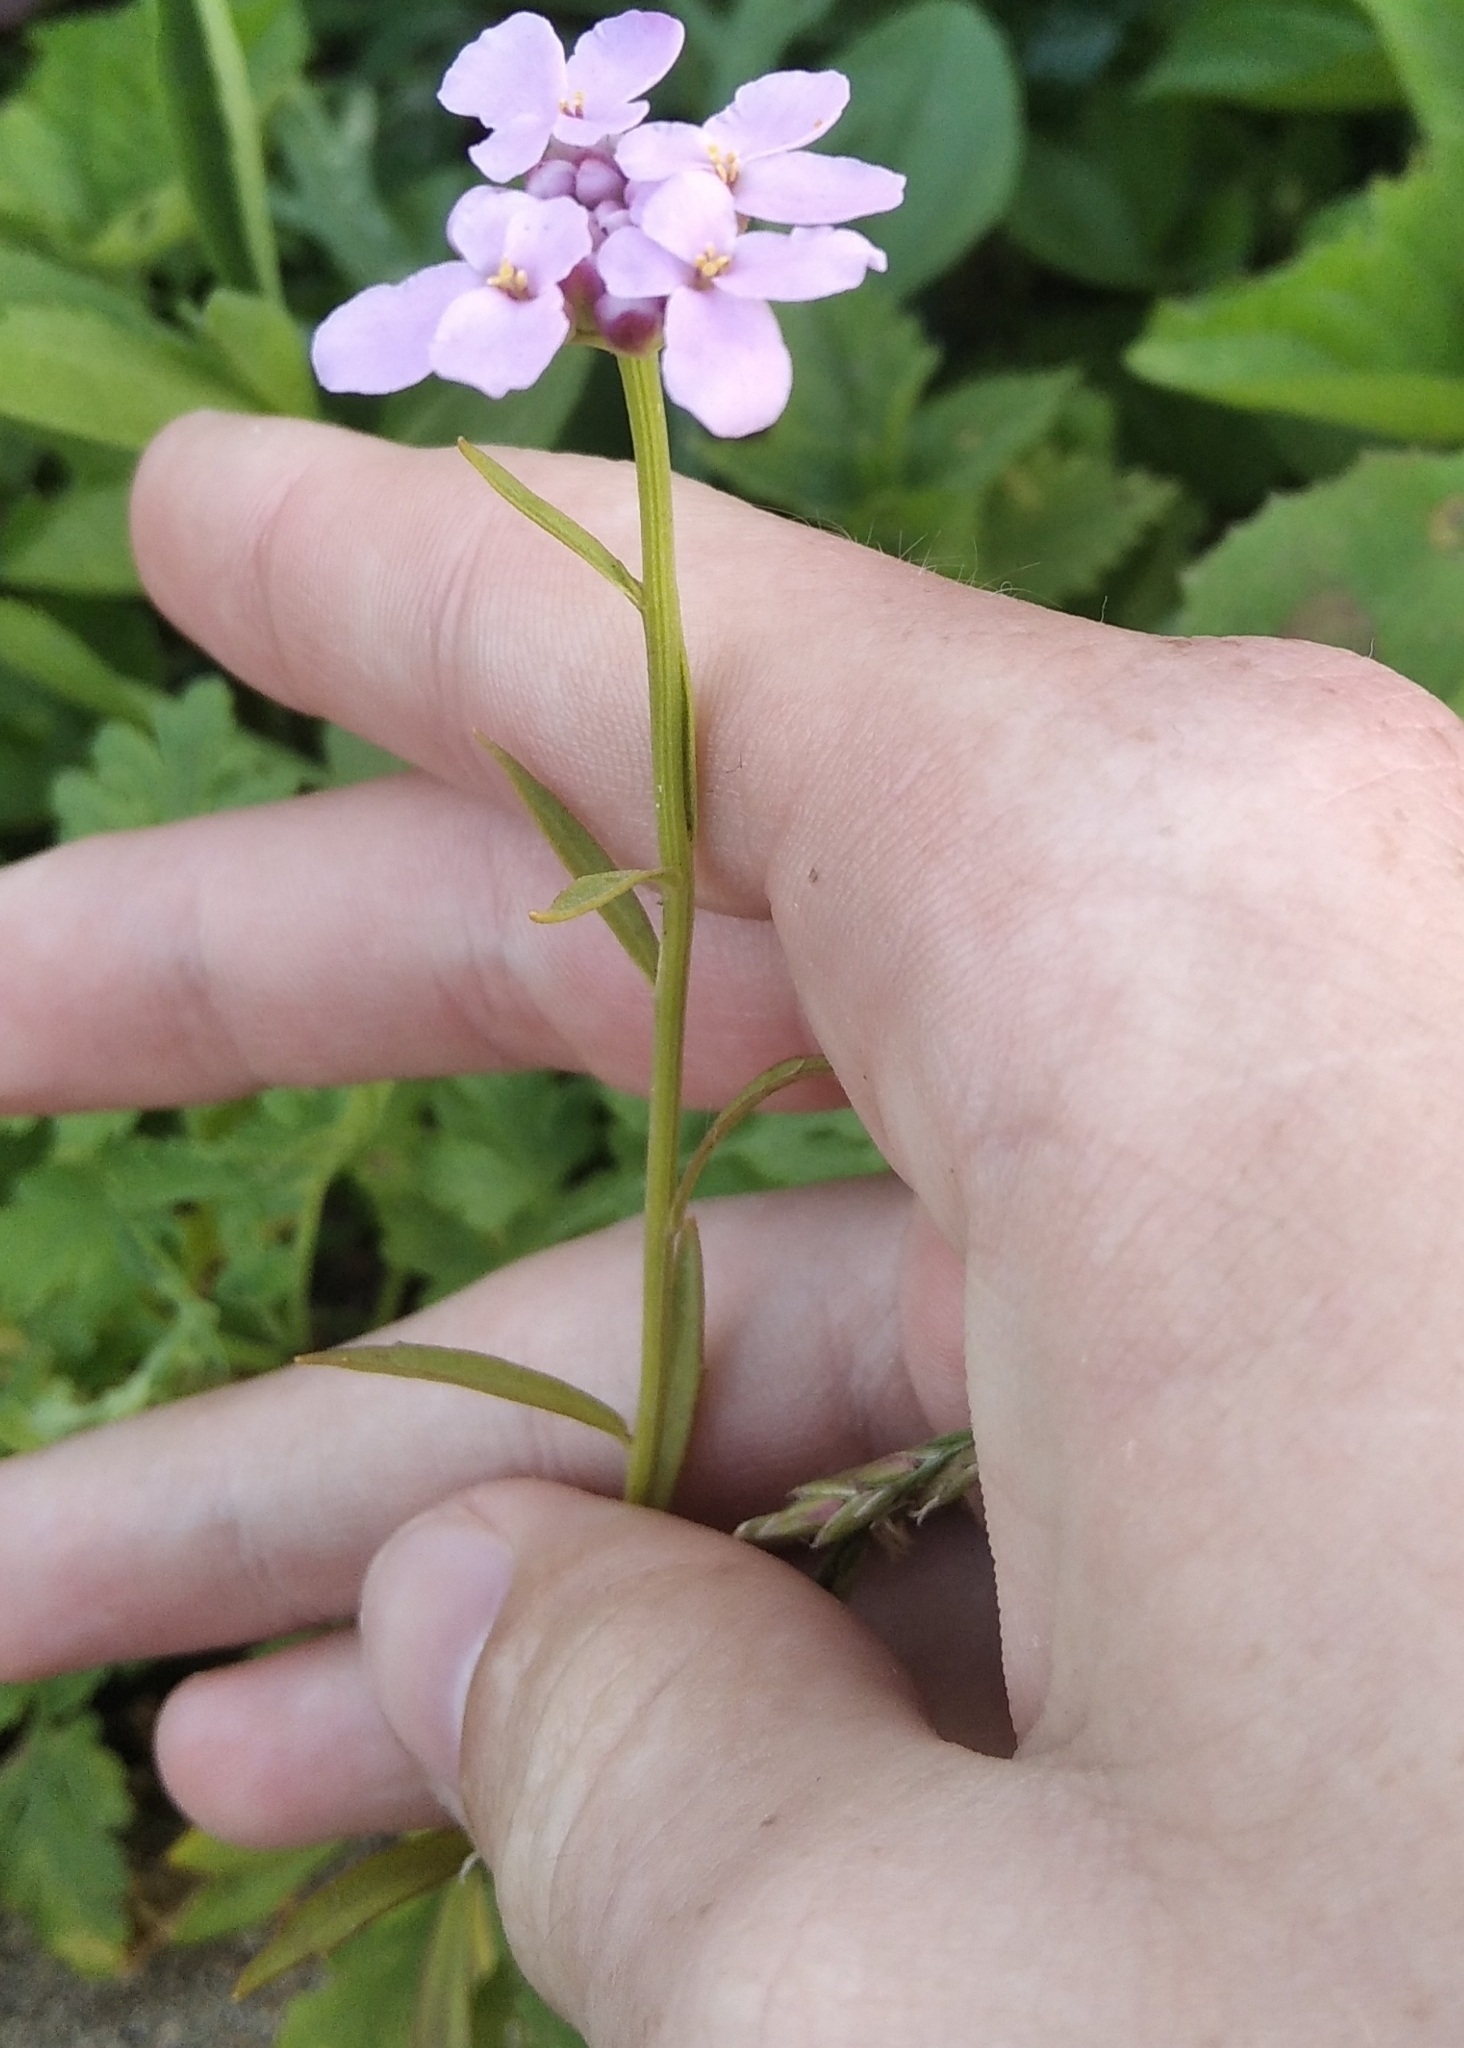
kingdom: Plantae
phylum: Tracheophyta
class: Magnoliopsida
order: Brassicales
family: Brassicaceae
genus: Iberis
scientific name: Iberis umbellata
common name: Globe candytuft
